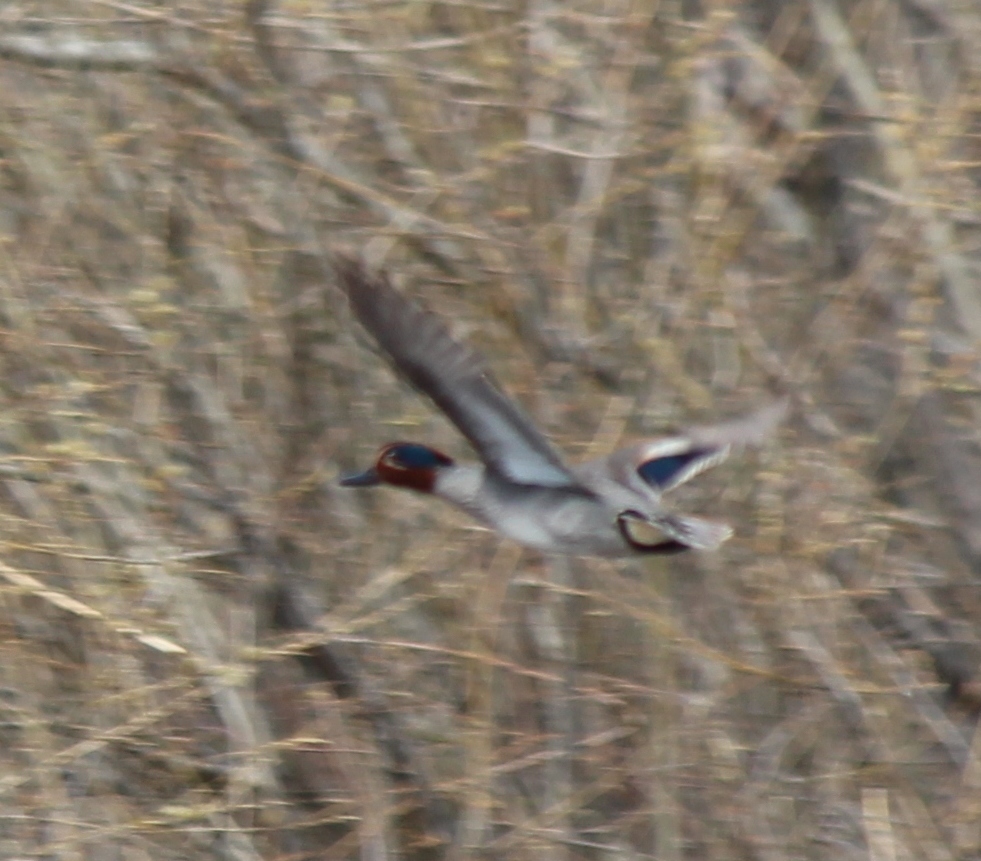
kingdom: Animalia
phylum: Chordata
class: Aves
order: Anseriformes
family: Anatidae
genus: Anas
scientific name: Anas crecca
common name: Eurasian teal
